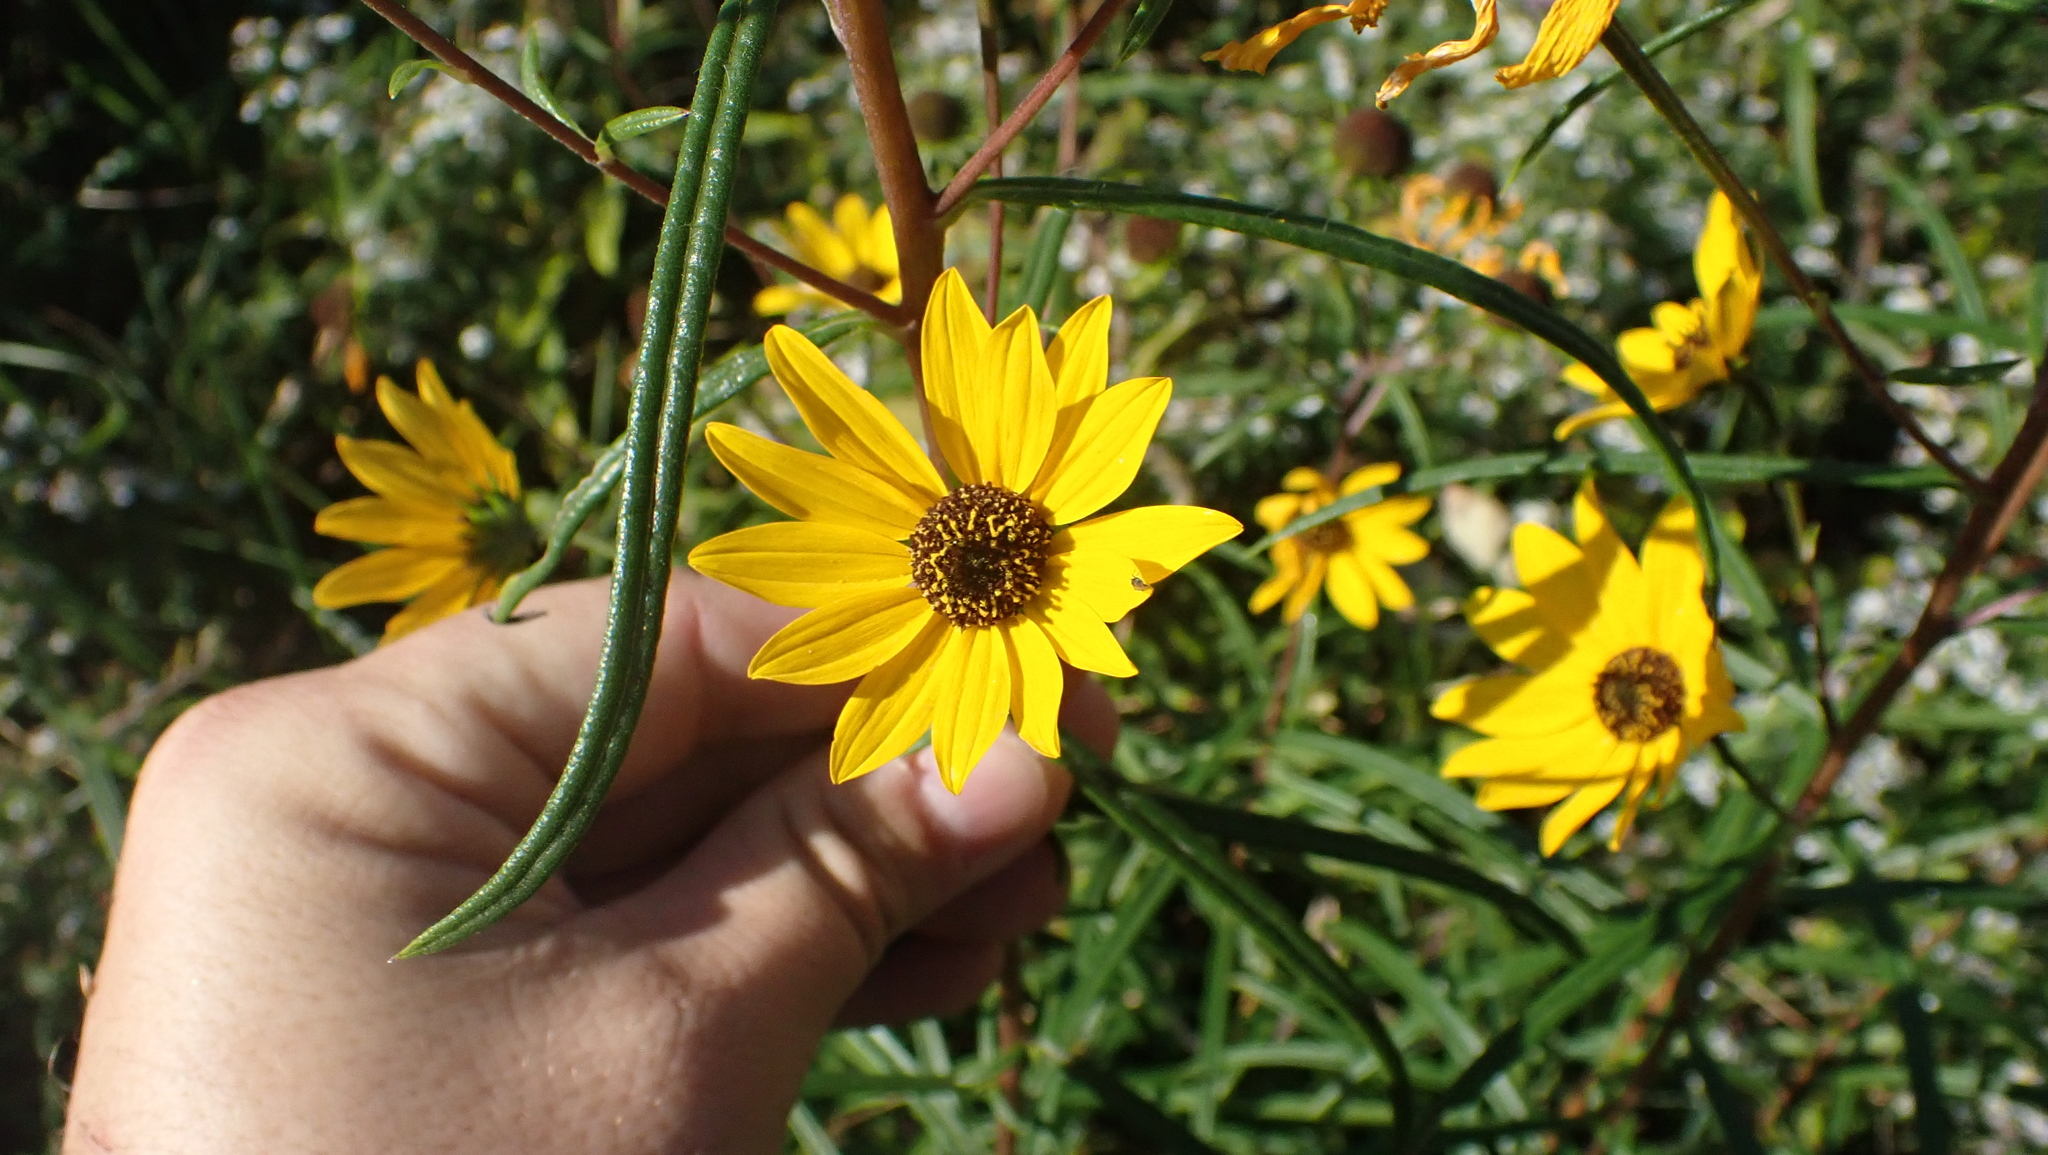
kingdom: Plantae
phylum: Tracheophyta
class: Magnoliopsida
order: Asterales
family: Asteraceae
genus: Helianthus
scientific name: Helianthus angustifolius
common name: Swamp sunflower
